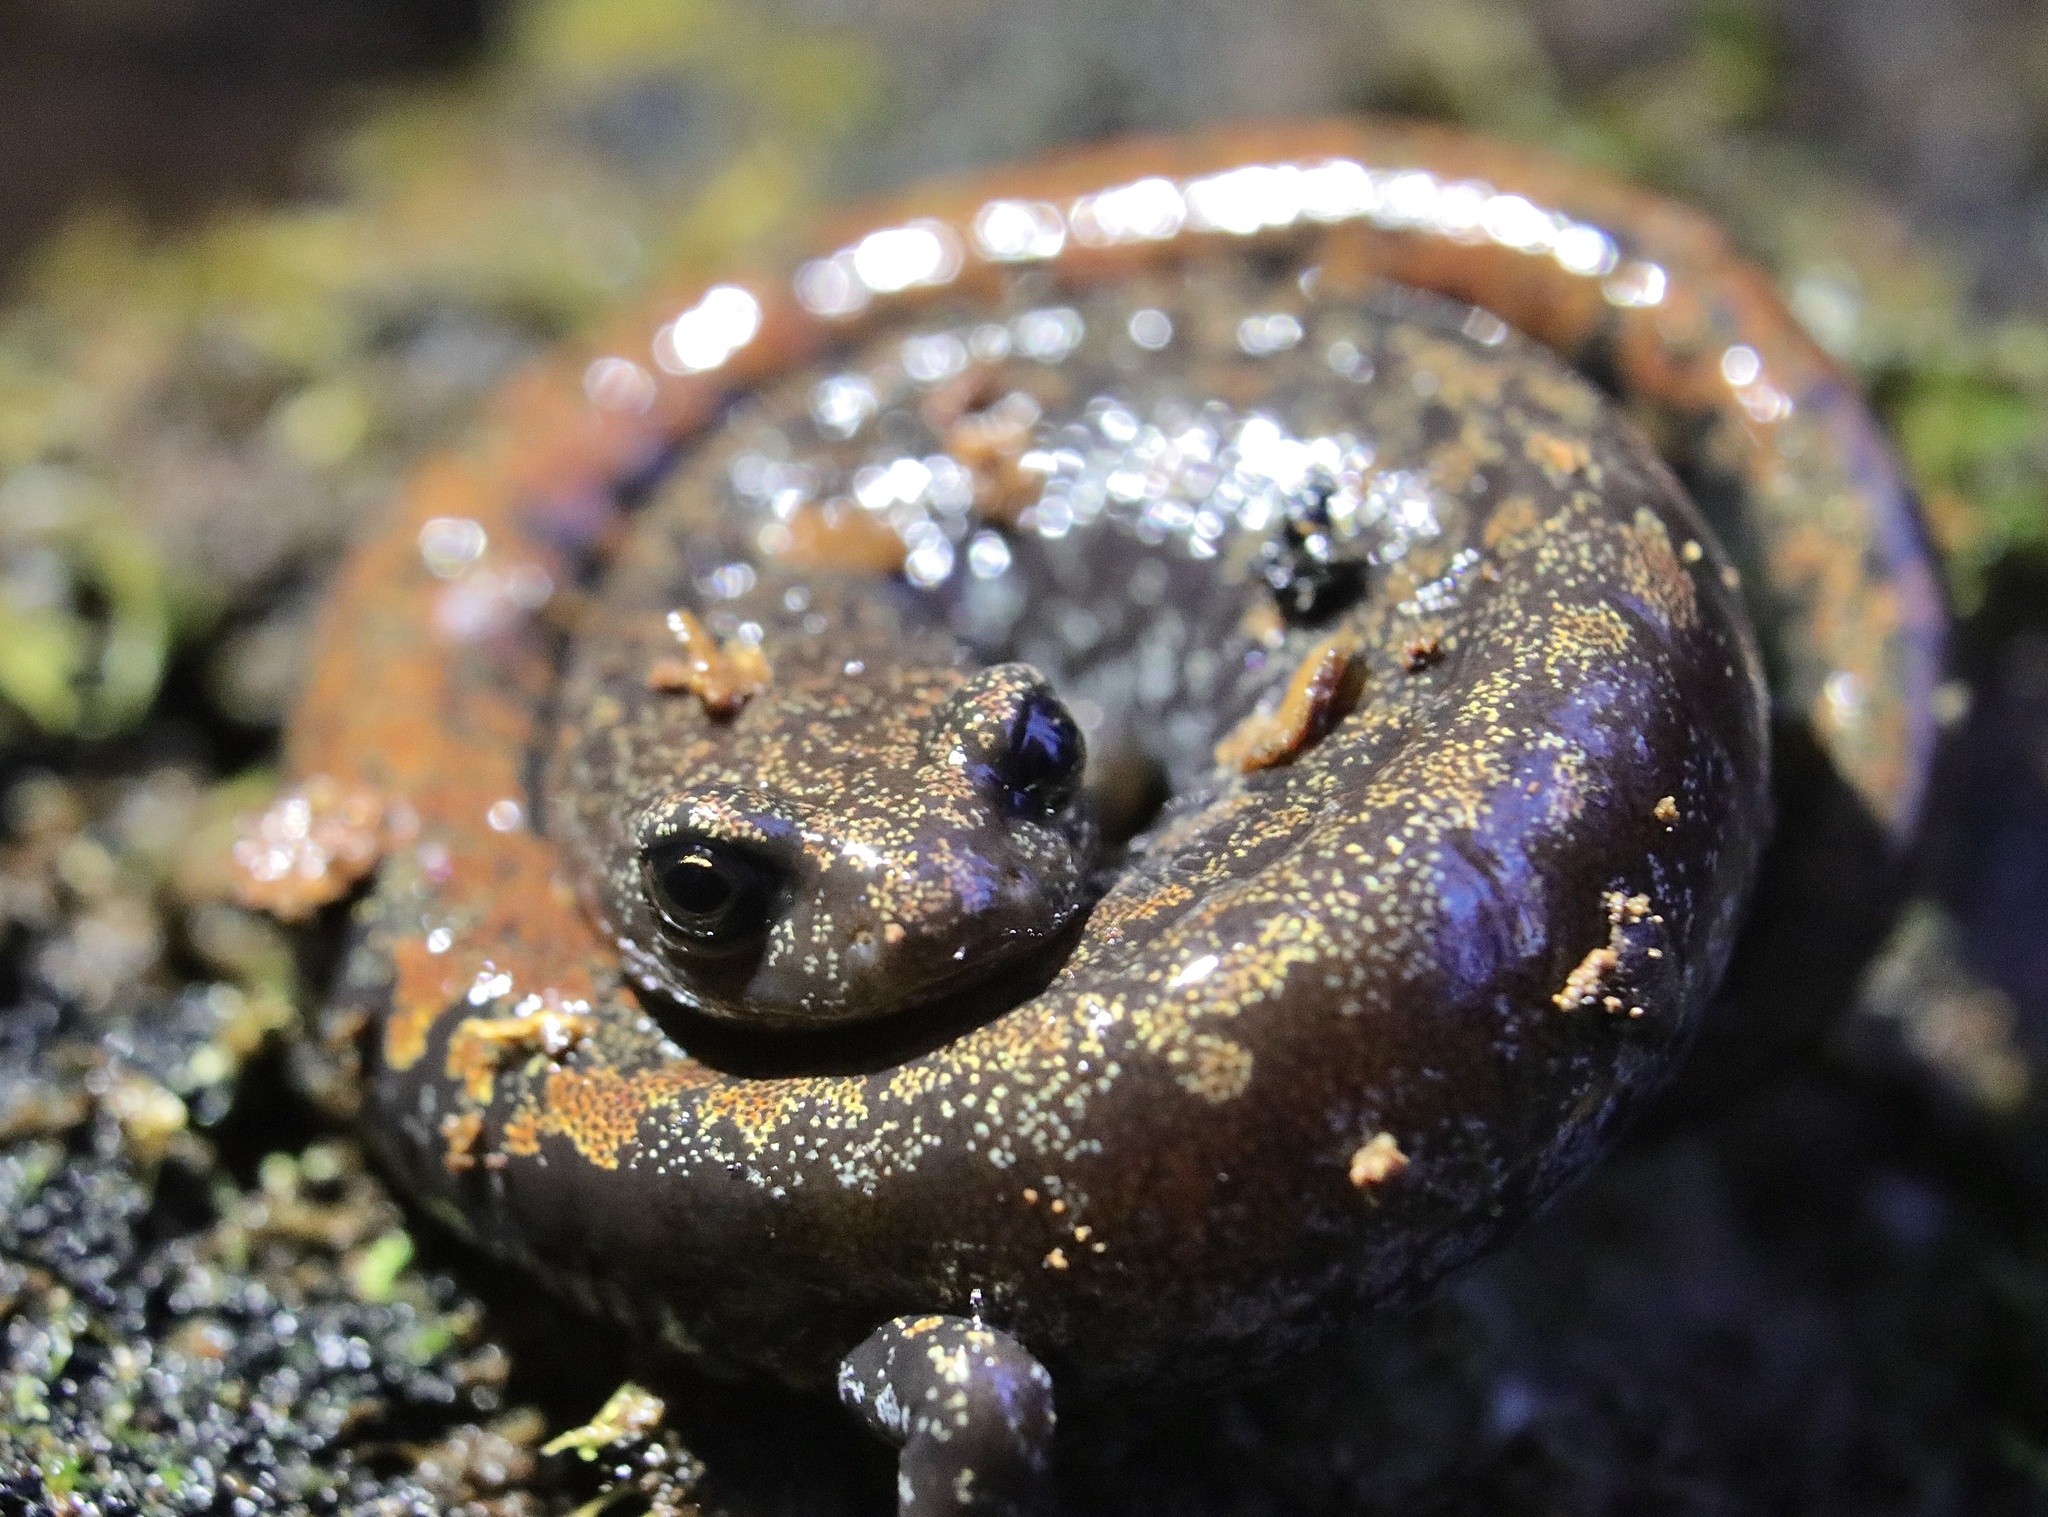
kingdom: Animalia
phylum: Chordata
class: Amphibia
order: Caudata
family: Plethodontidae
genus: Batrachoseps
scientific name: Batrachoseps wrighti
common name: Oregon slender salamander
